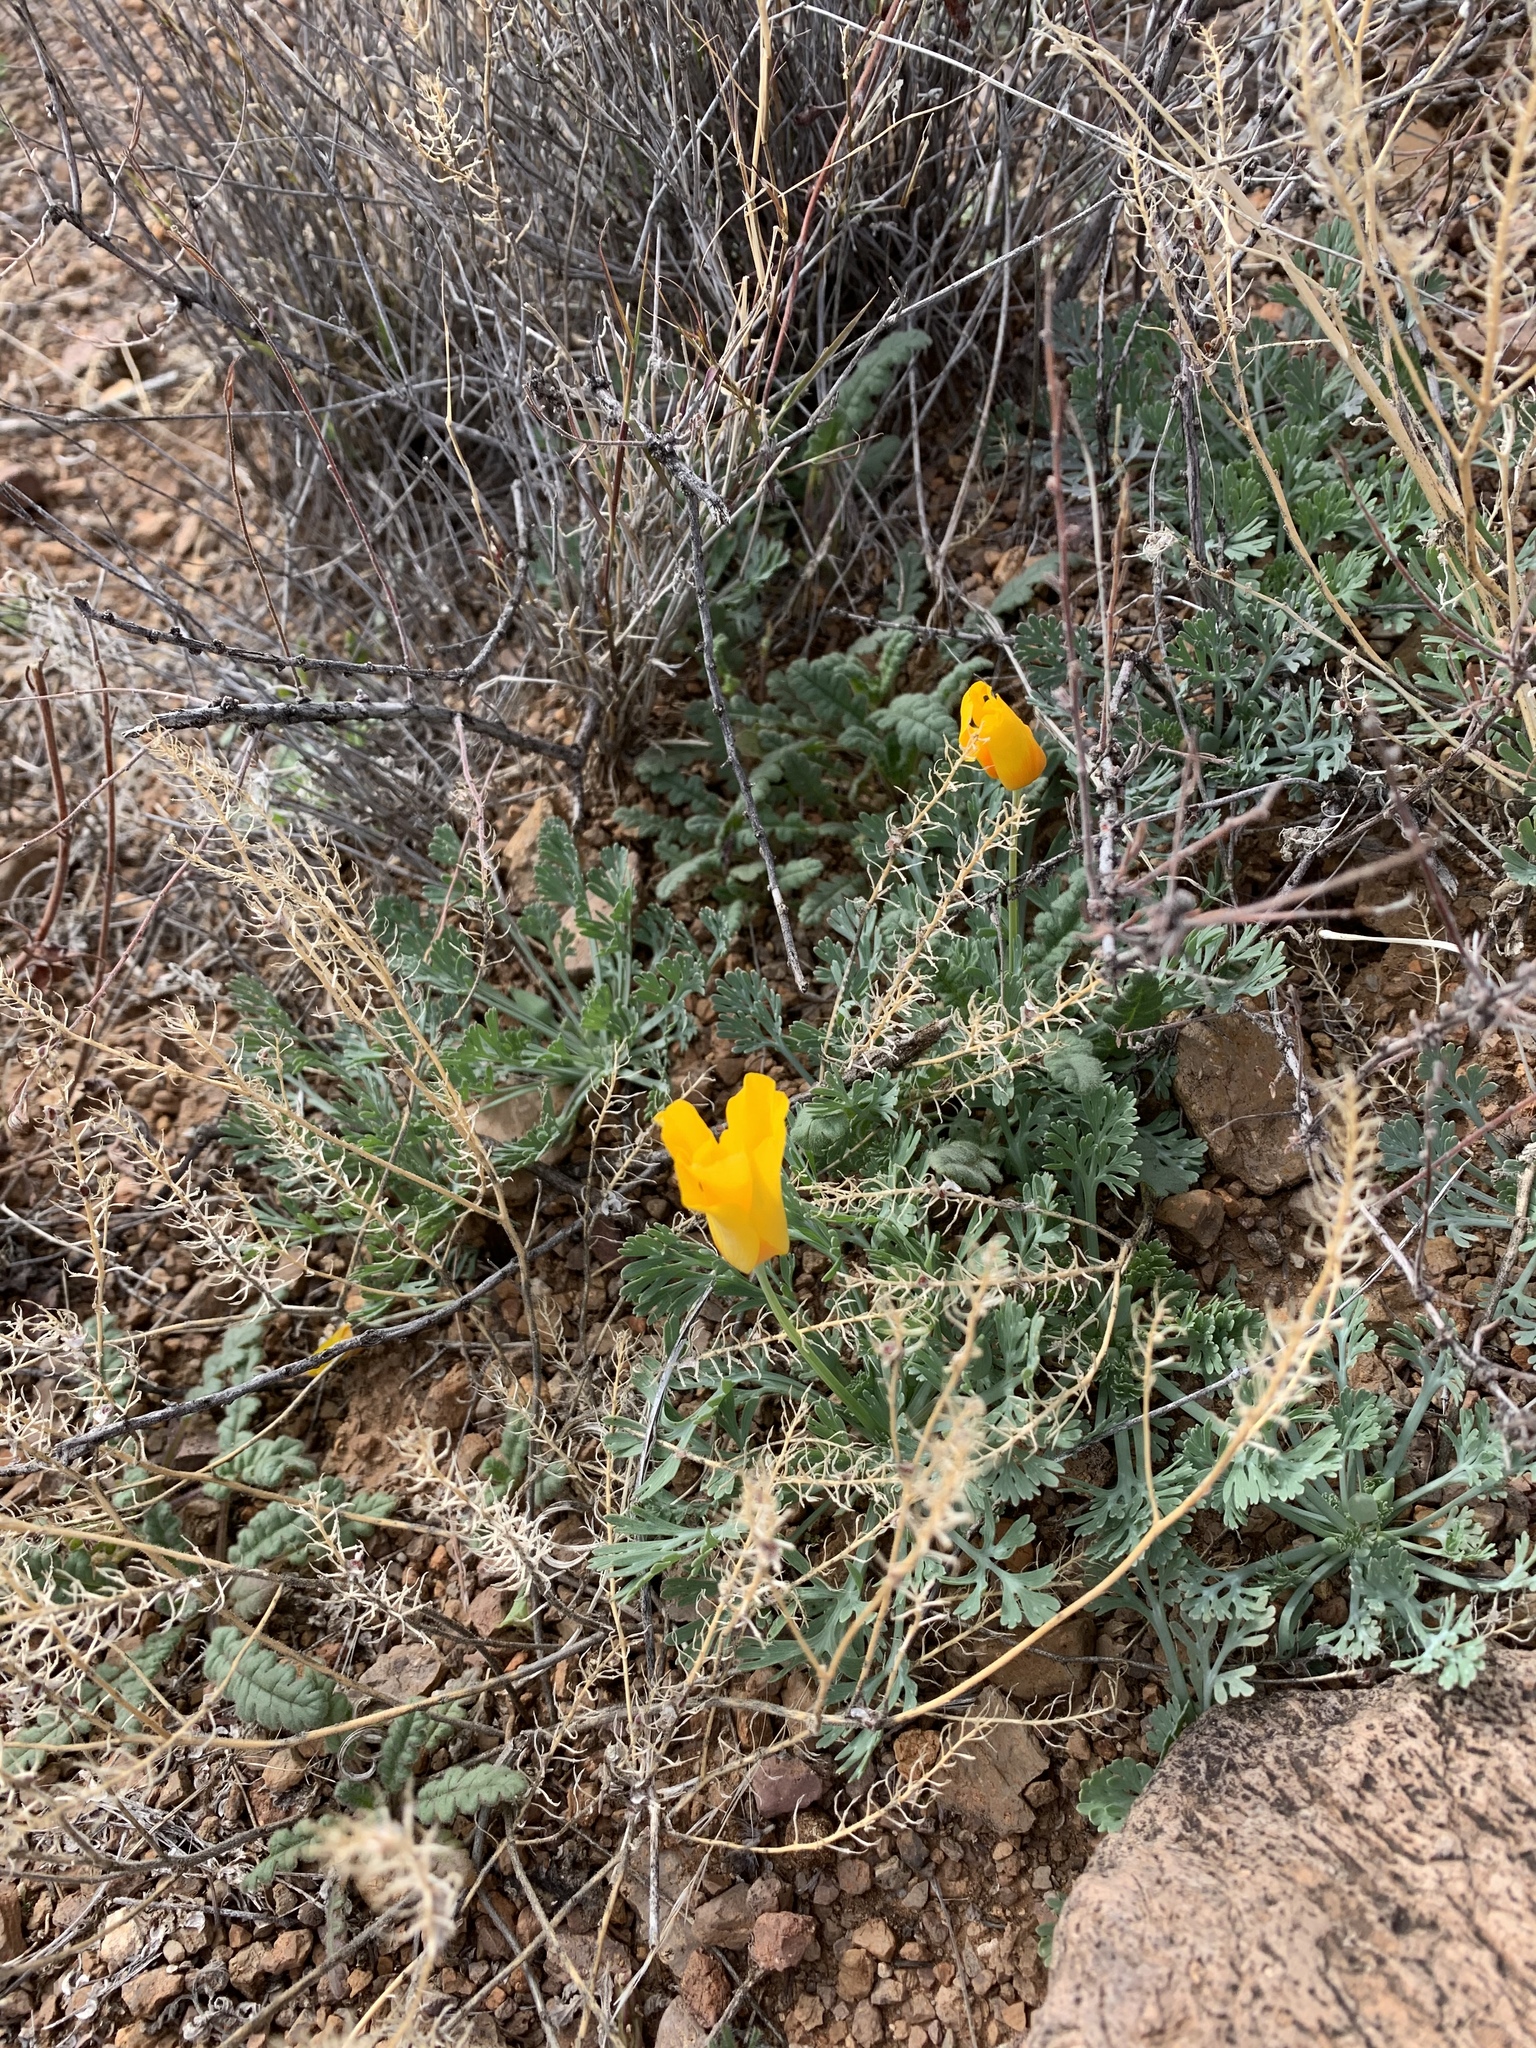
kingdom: Plantae
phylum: Tracheophyta
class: Magnoliopsida
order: Ranunculales
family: Papaveraceae
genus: Eschscholzia
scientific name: Eschscholzia californica
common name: California poppy
